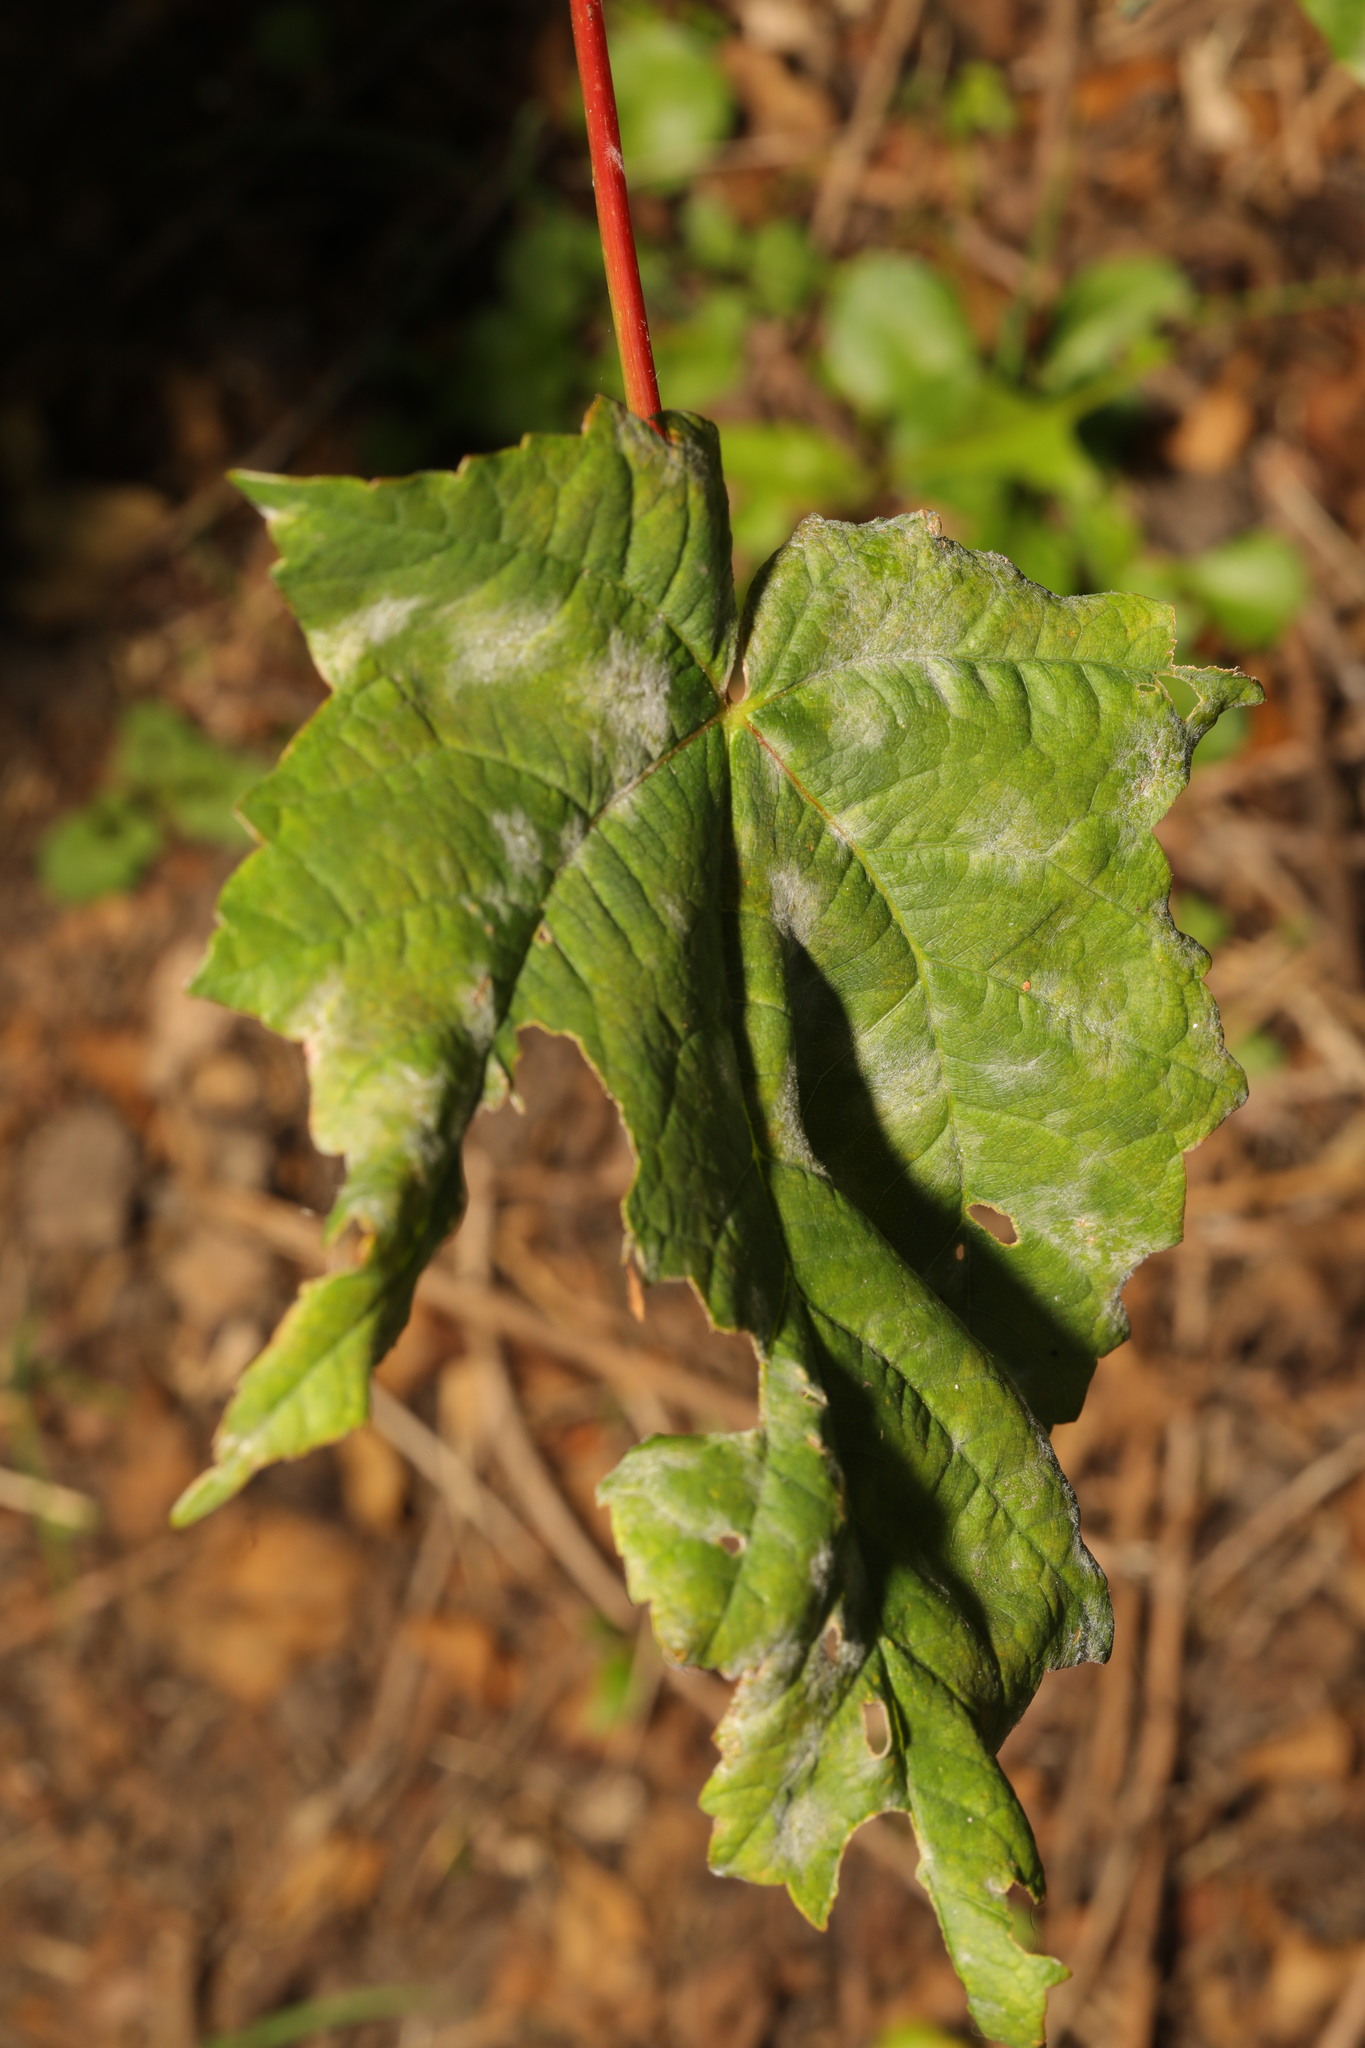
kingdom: Fungi
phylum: Ascomycota
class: Leotiomycetes
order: Helotiales
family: Erysiphaceae
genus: Sawadaea
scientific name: Sawadaea bicornis
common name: Maple mildew
